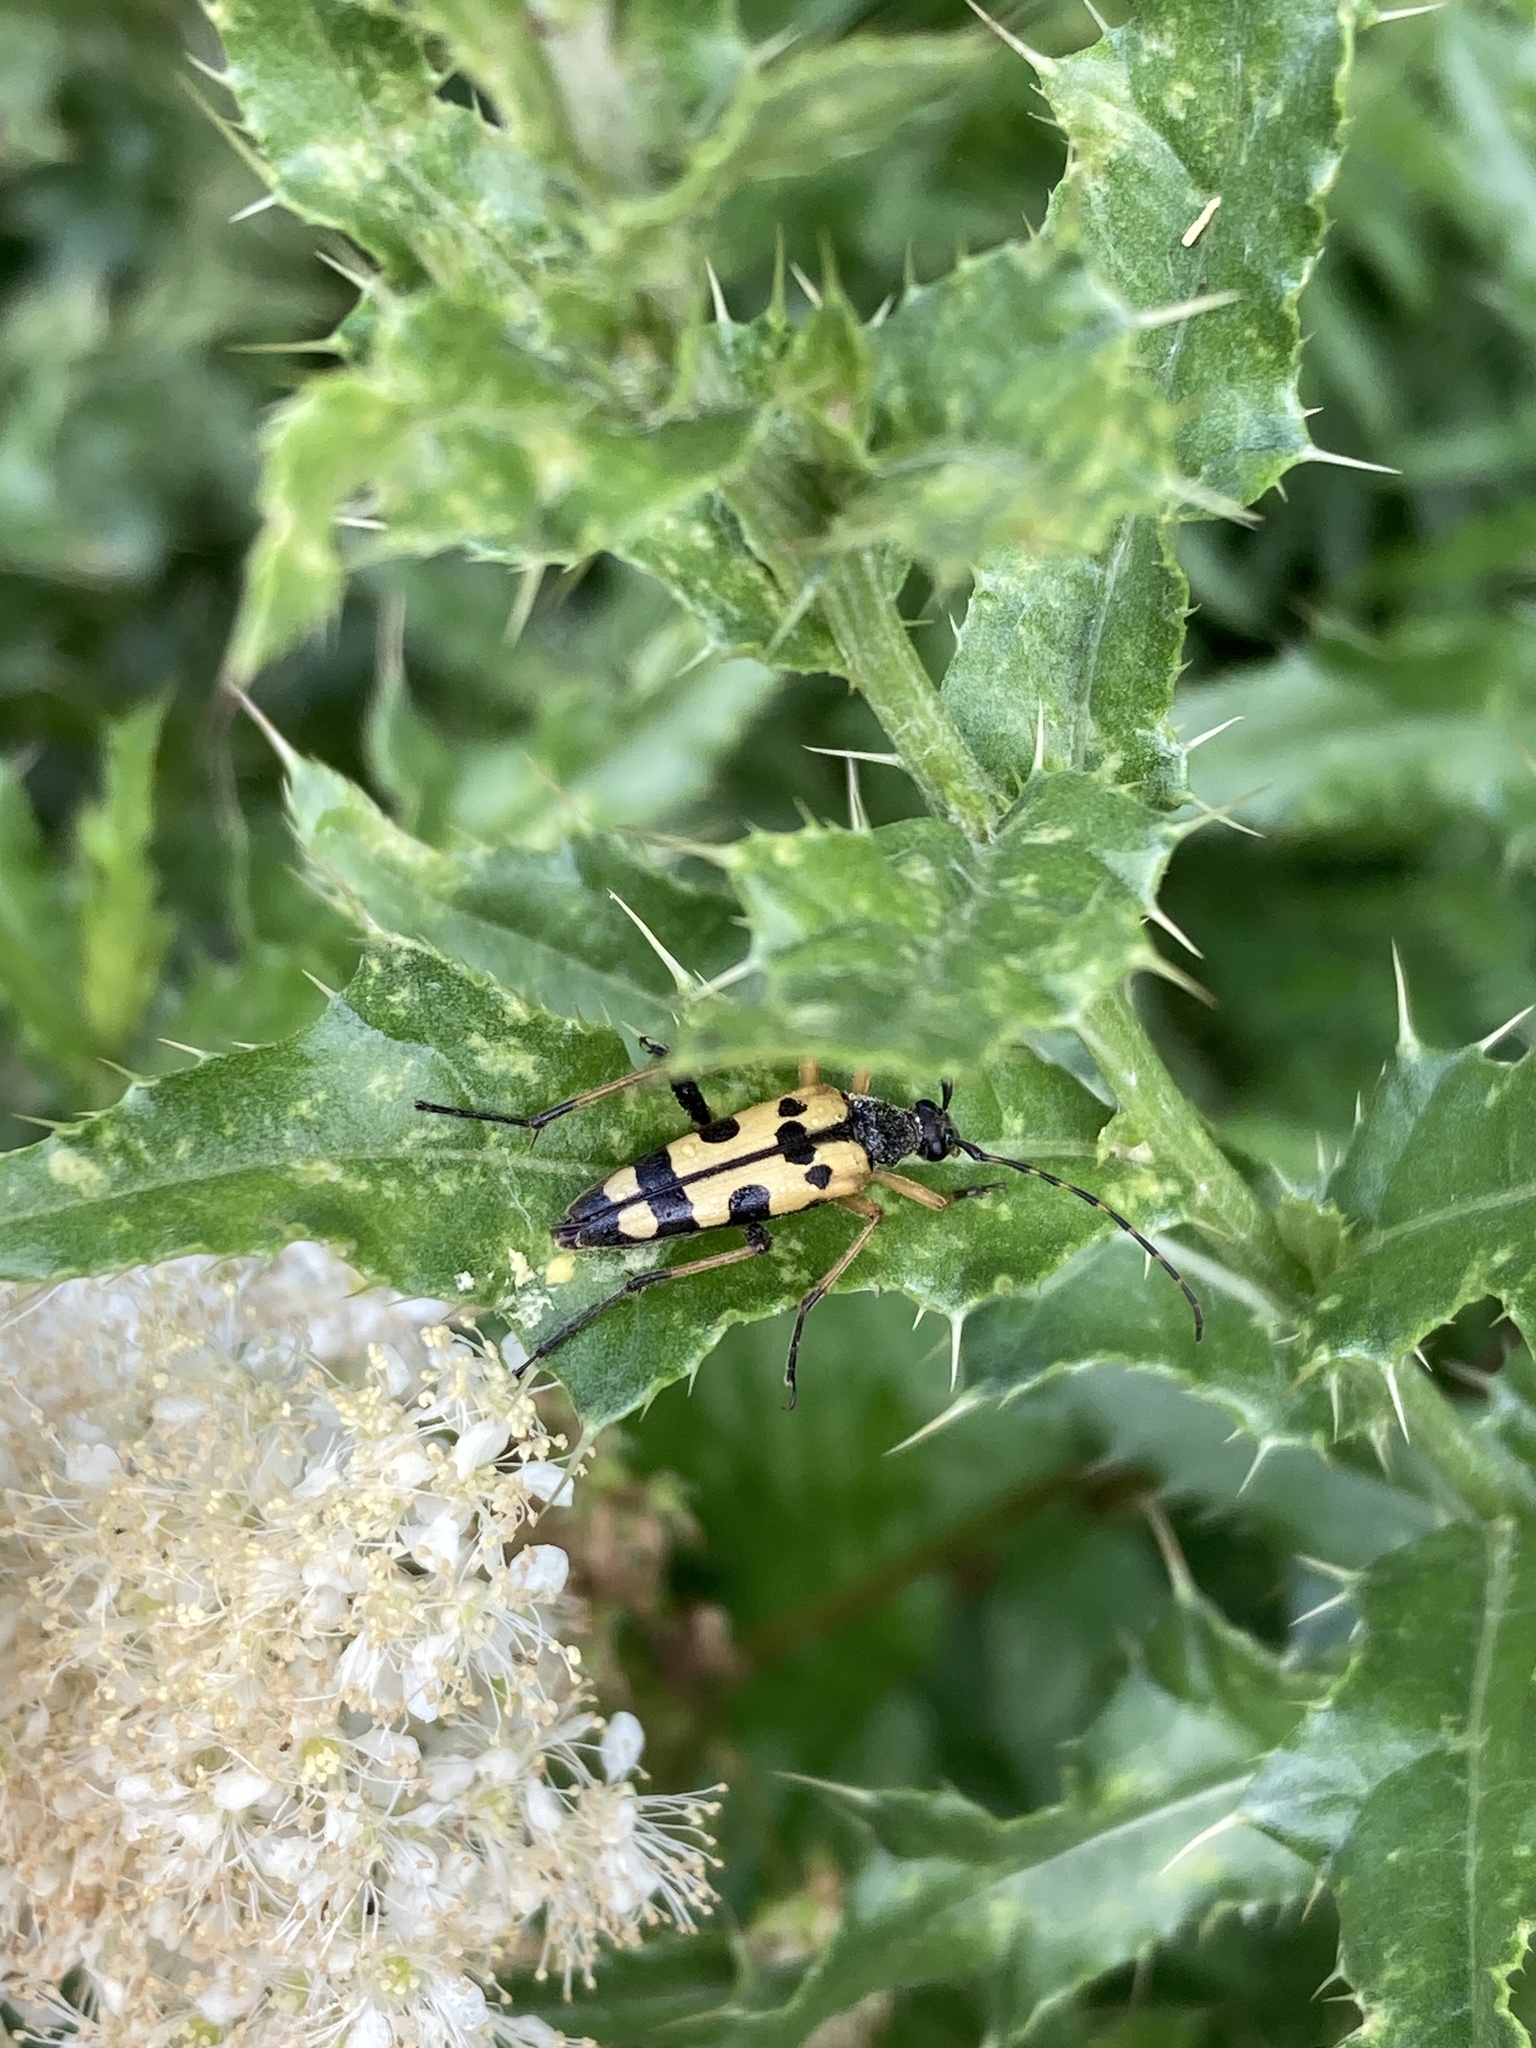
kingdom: Animalia
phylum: Arthropoda
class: Insecta
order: Coleoptera
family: Cerambycidae
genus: Rutpela
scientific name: Rutpela maculata
